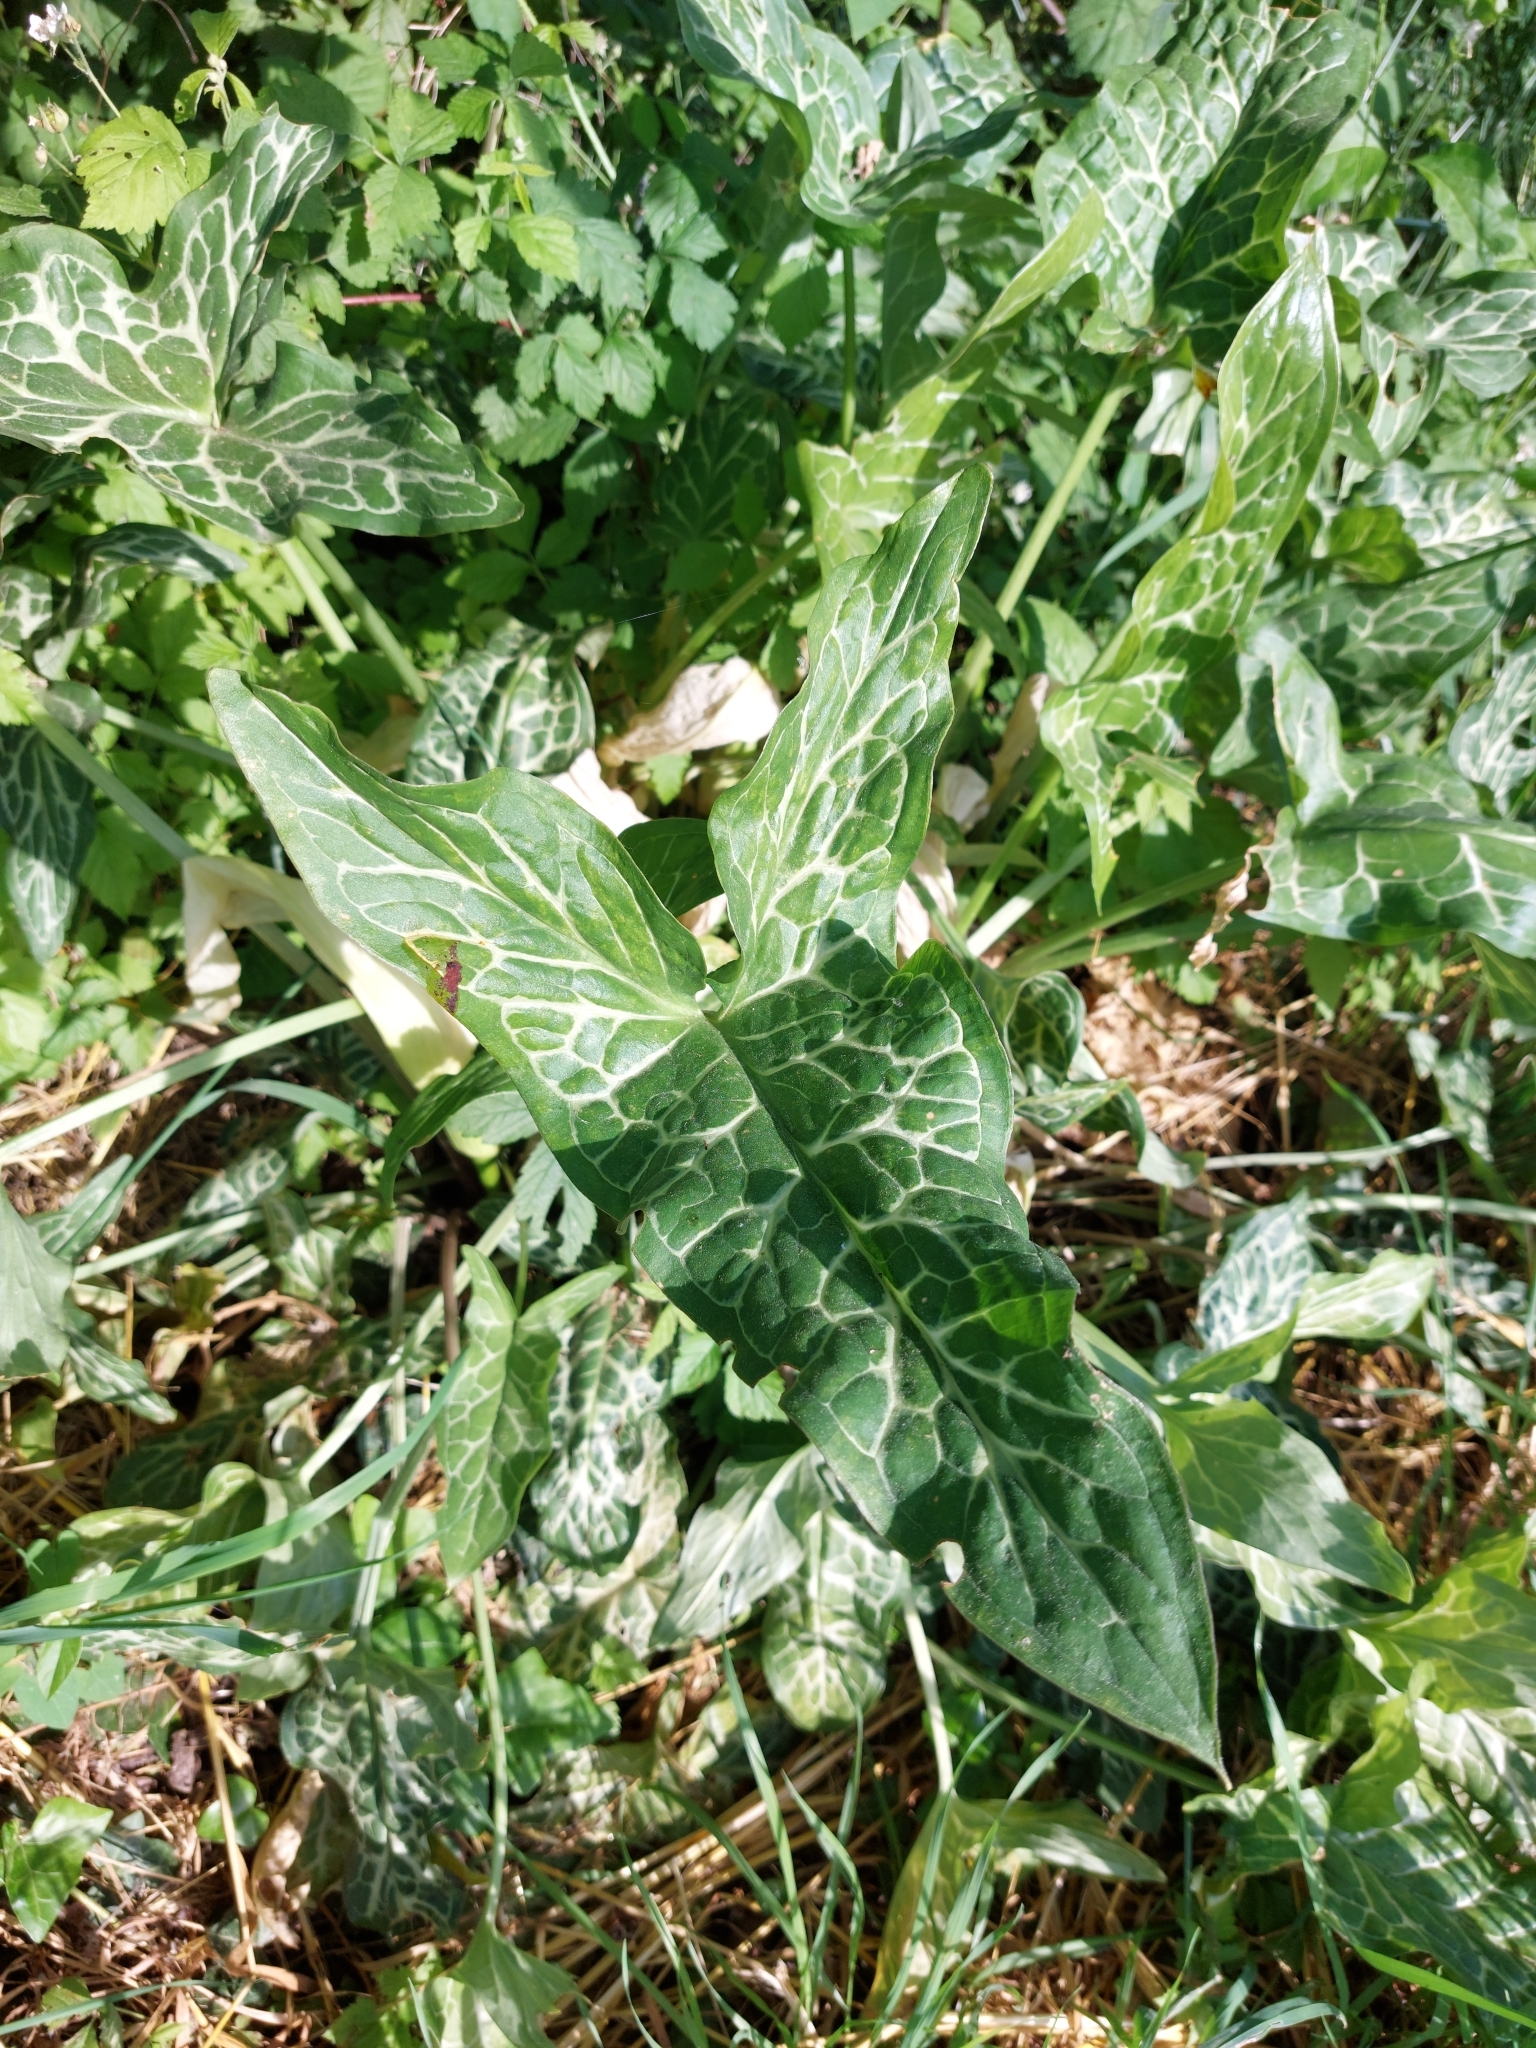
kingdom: Plantae
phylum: Tracheophyta
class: Liliopsida
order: Alismatales
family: Araceae
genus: Arum
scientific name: Arum italicum
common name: Italian lords-and-ladies
